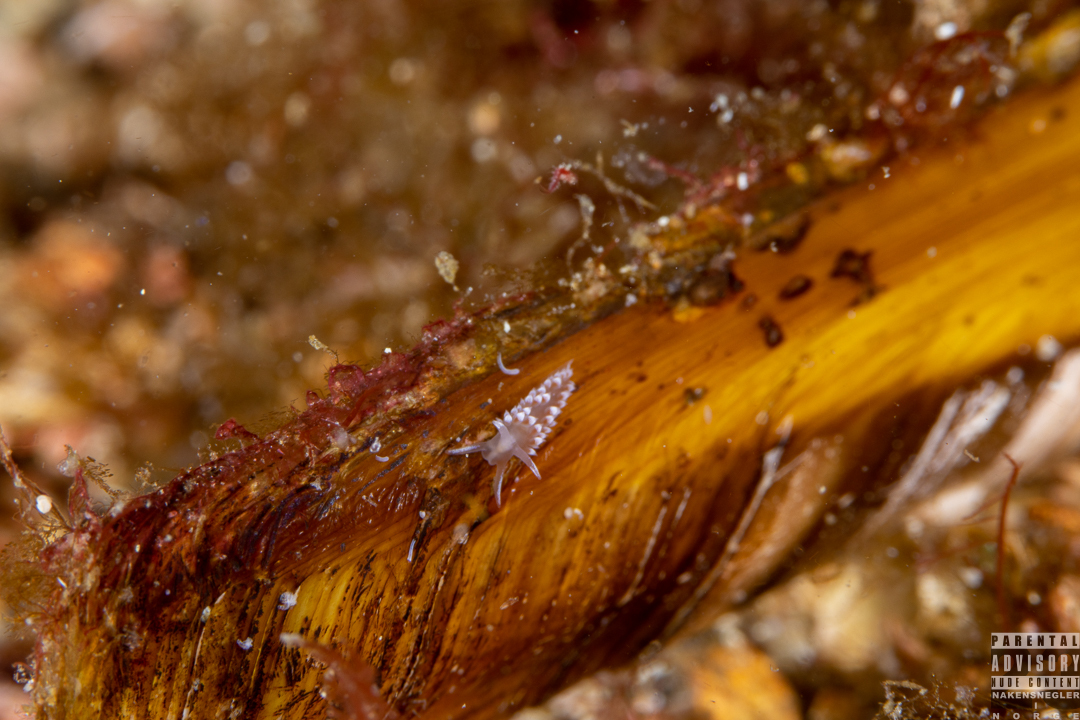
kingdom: Animalia
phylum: Mollusca
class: Gastropoda
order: Nudibranchia
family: Coryphellidae
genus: Coryphella
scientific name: Coryphella verrucosa
